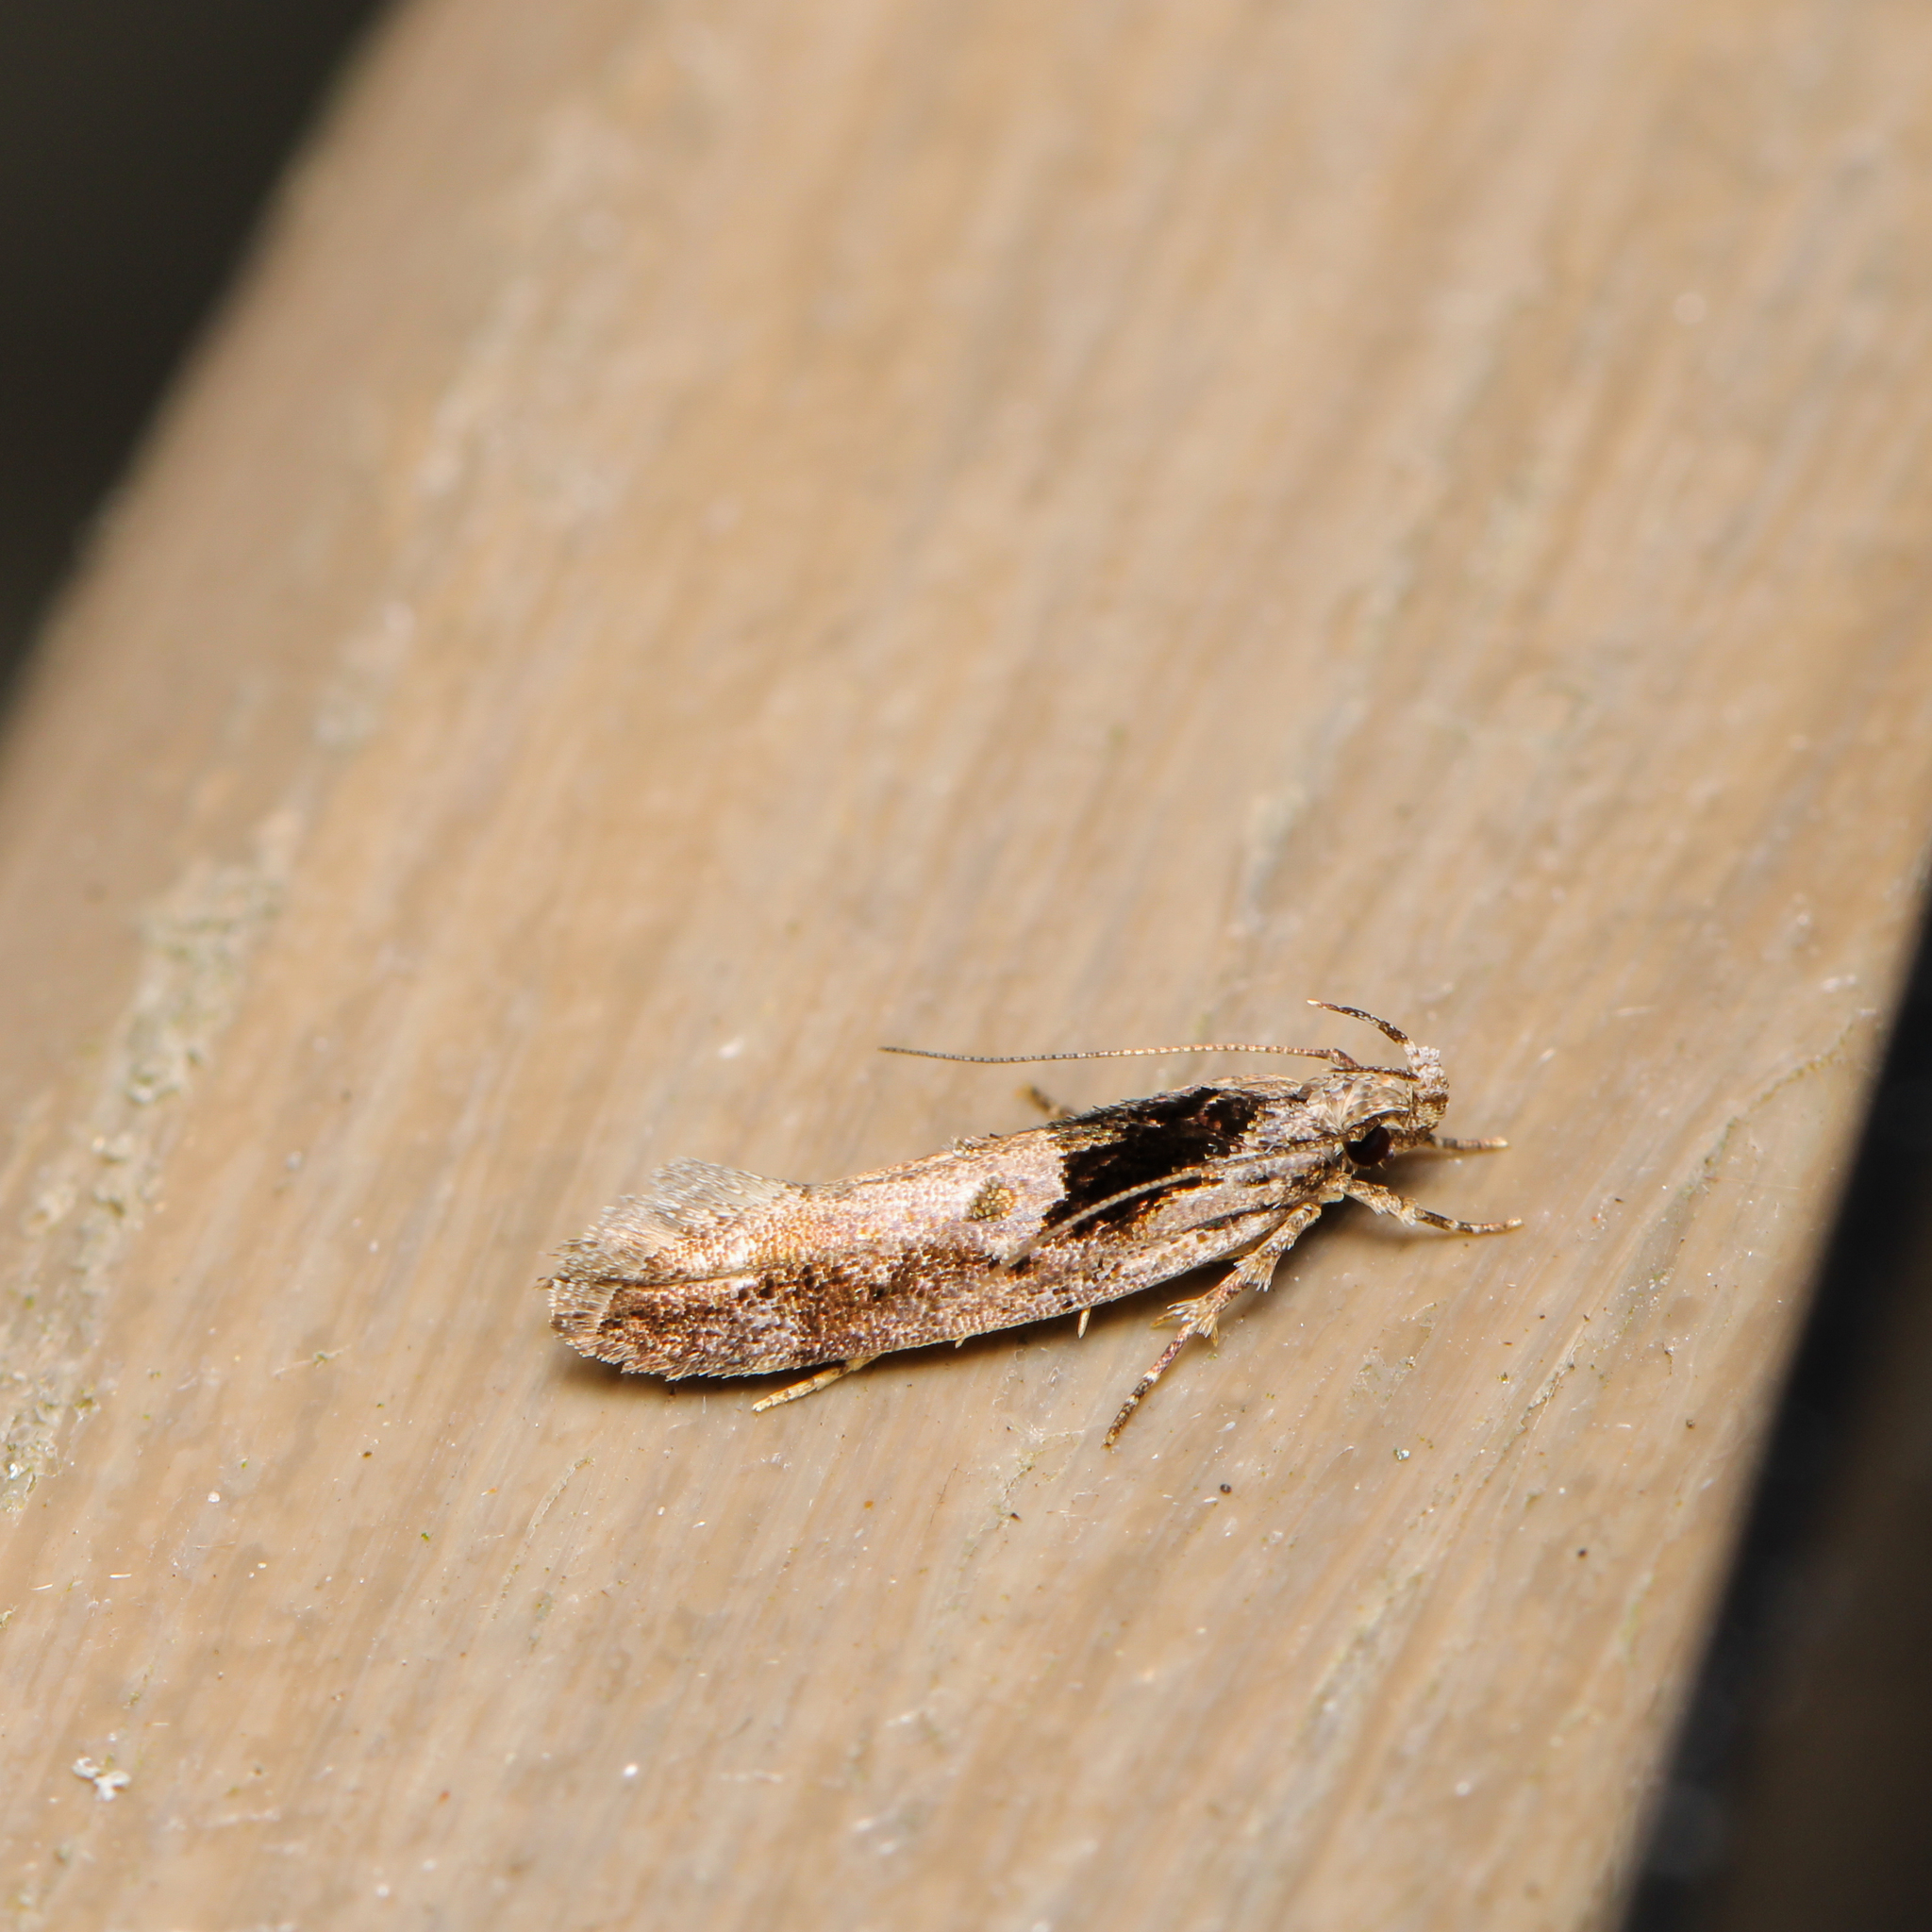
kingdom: Animalia
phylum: Arthropoda
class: Insecta
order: Lepidoptera
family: Gelechiidae
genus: Pseudochelaria
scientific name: Pseudochelaria pennsylvanica
